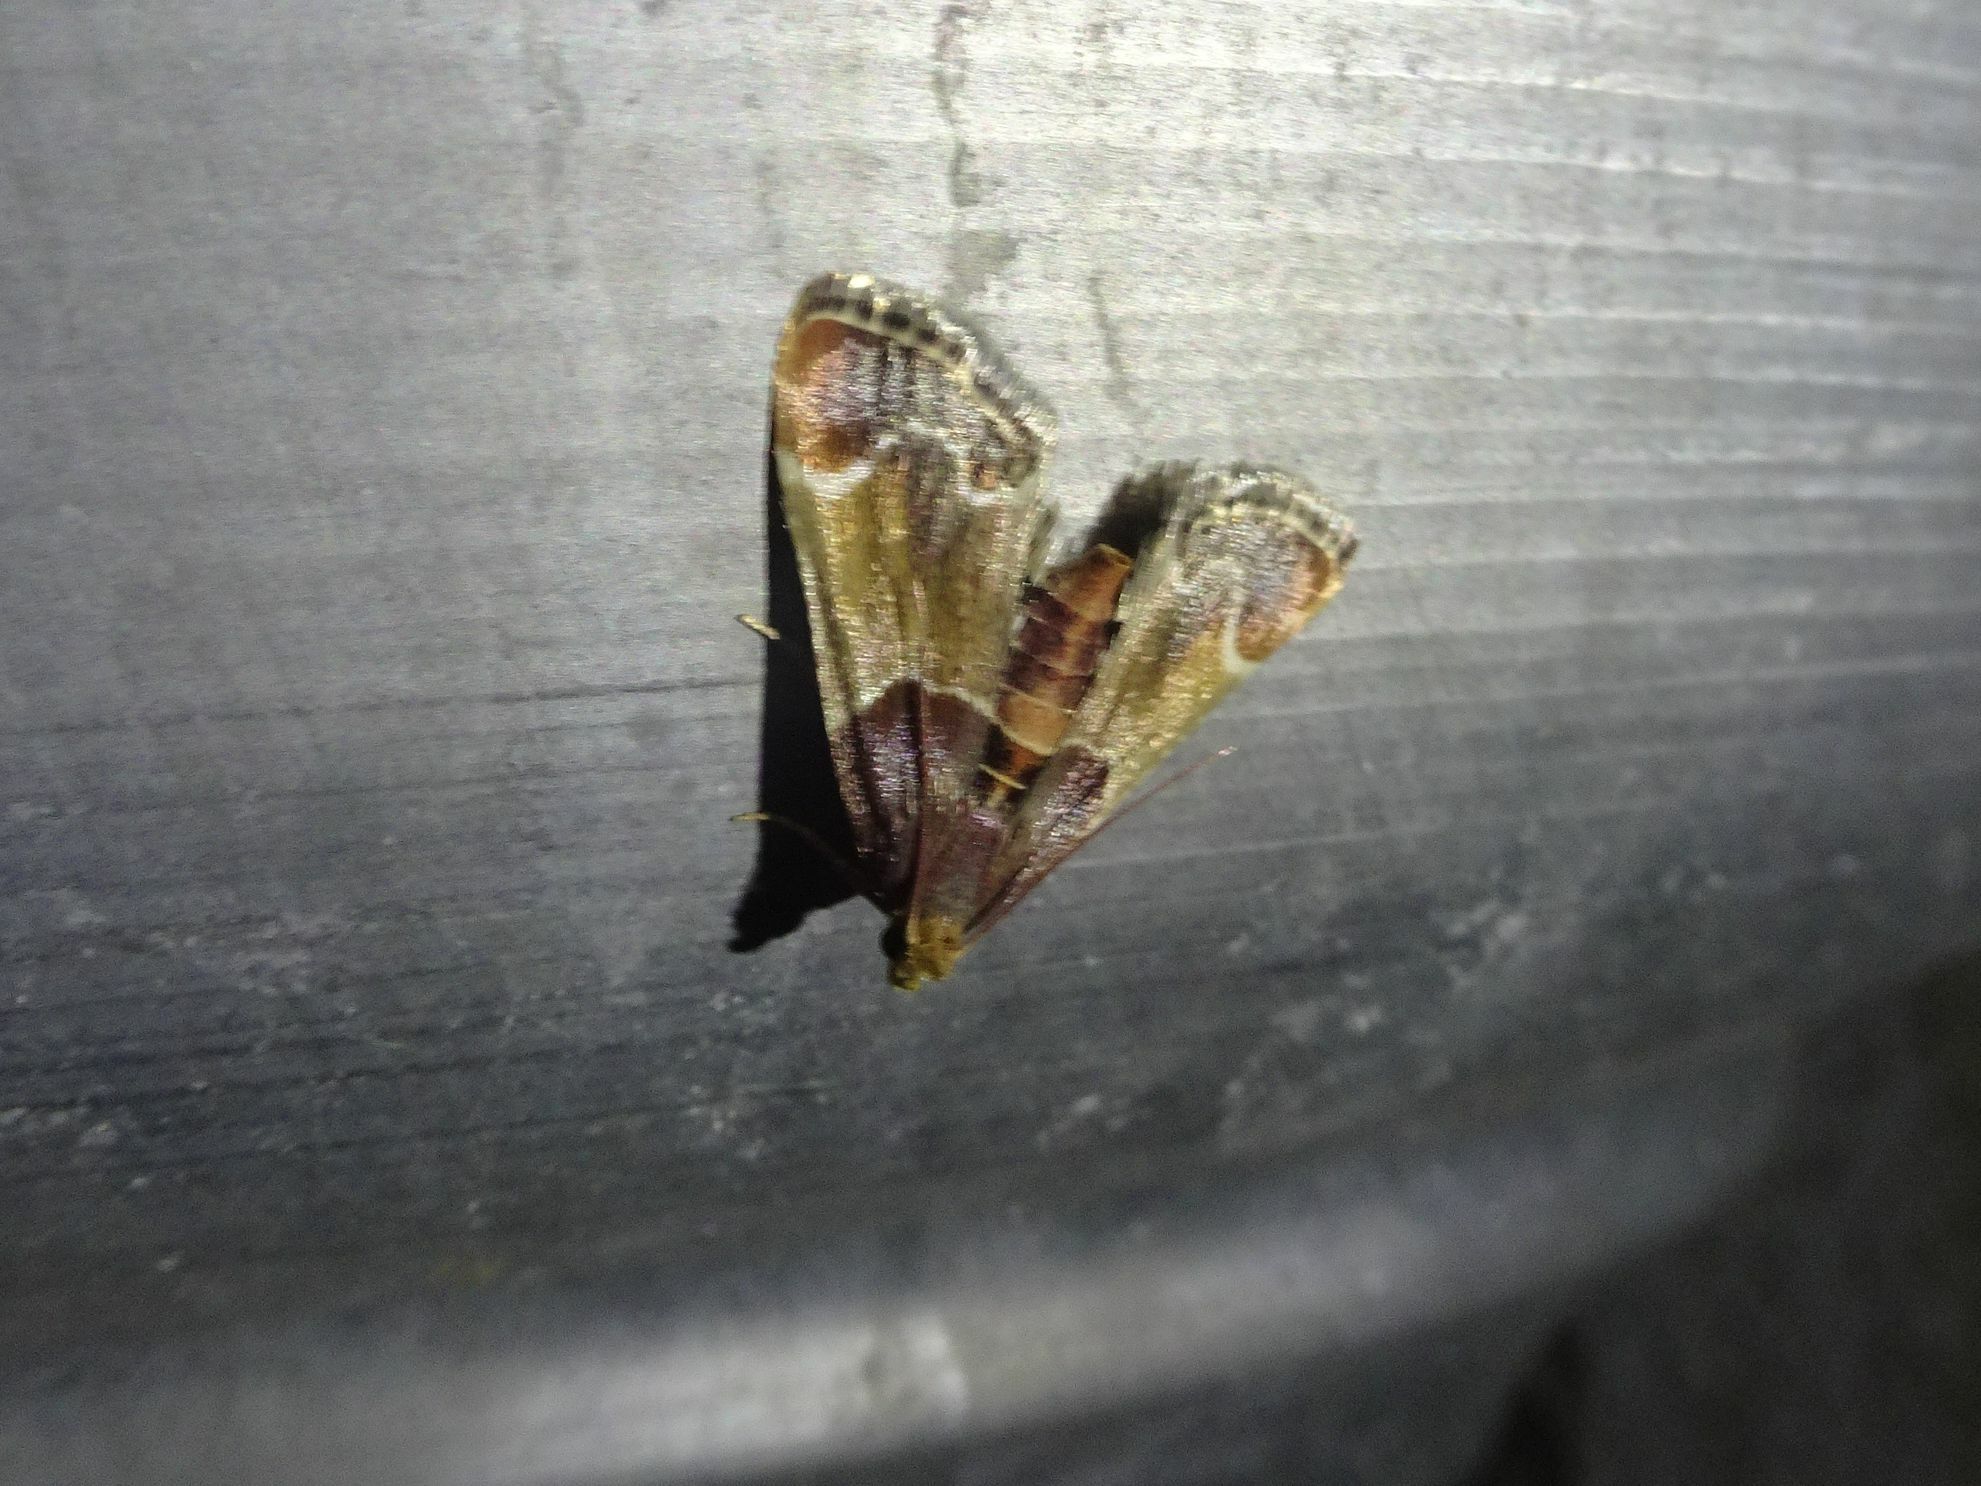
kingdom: Animalia
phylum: Arthropoda
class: Insecta
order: Lepidoptera
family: Pyralidae
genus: Pyralis
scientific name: Pyralis farinalis
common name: Meal moth
